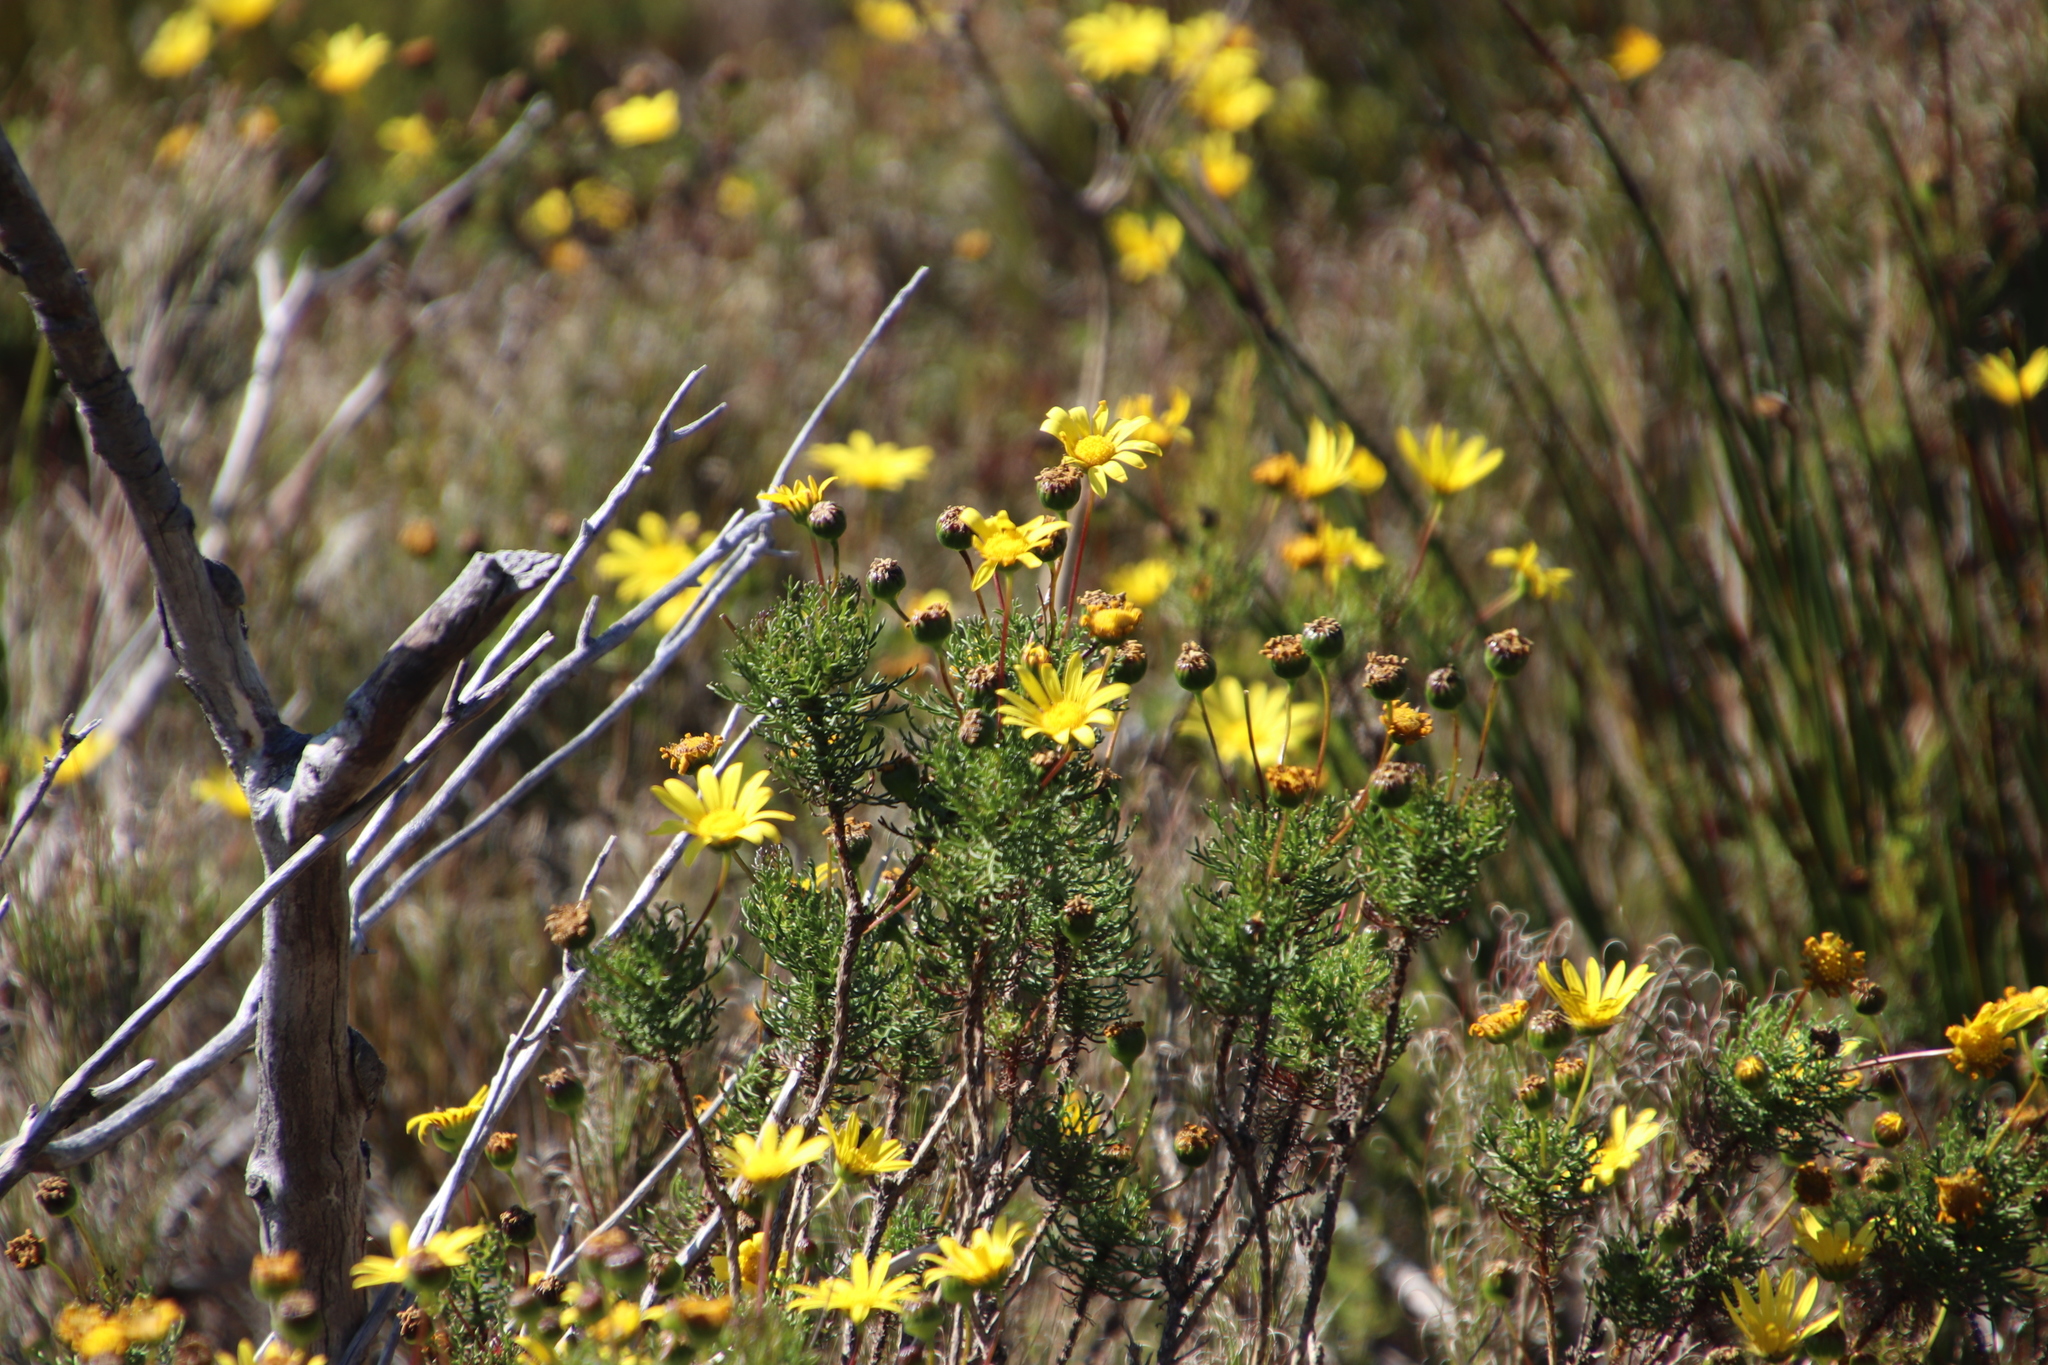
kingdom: Plantae
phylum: Tracheophyta
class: Magnoliopsida
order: Asterales
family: Asteraceae
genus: Euryops
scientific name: Euryops abrotanifolius
